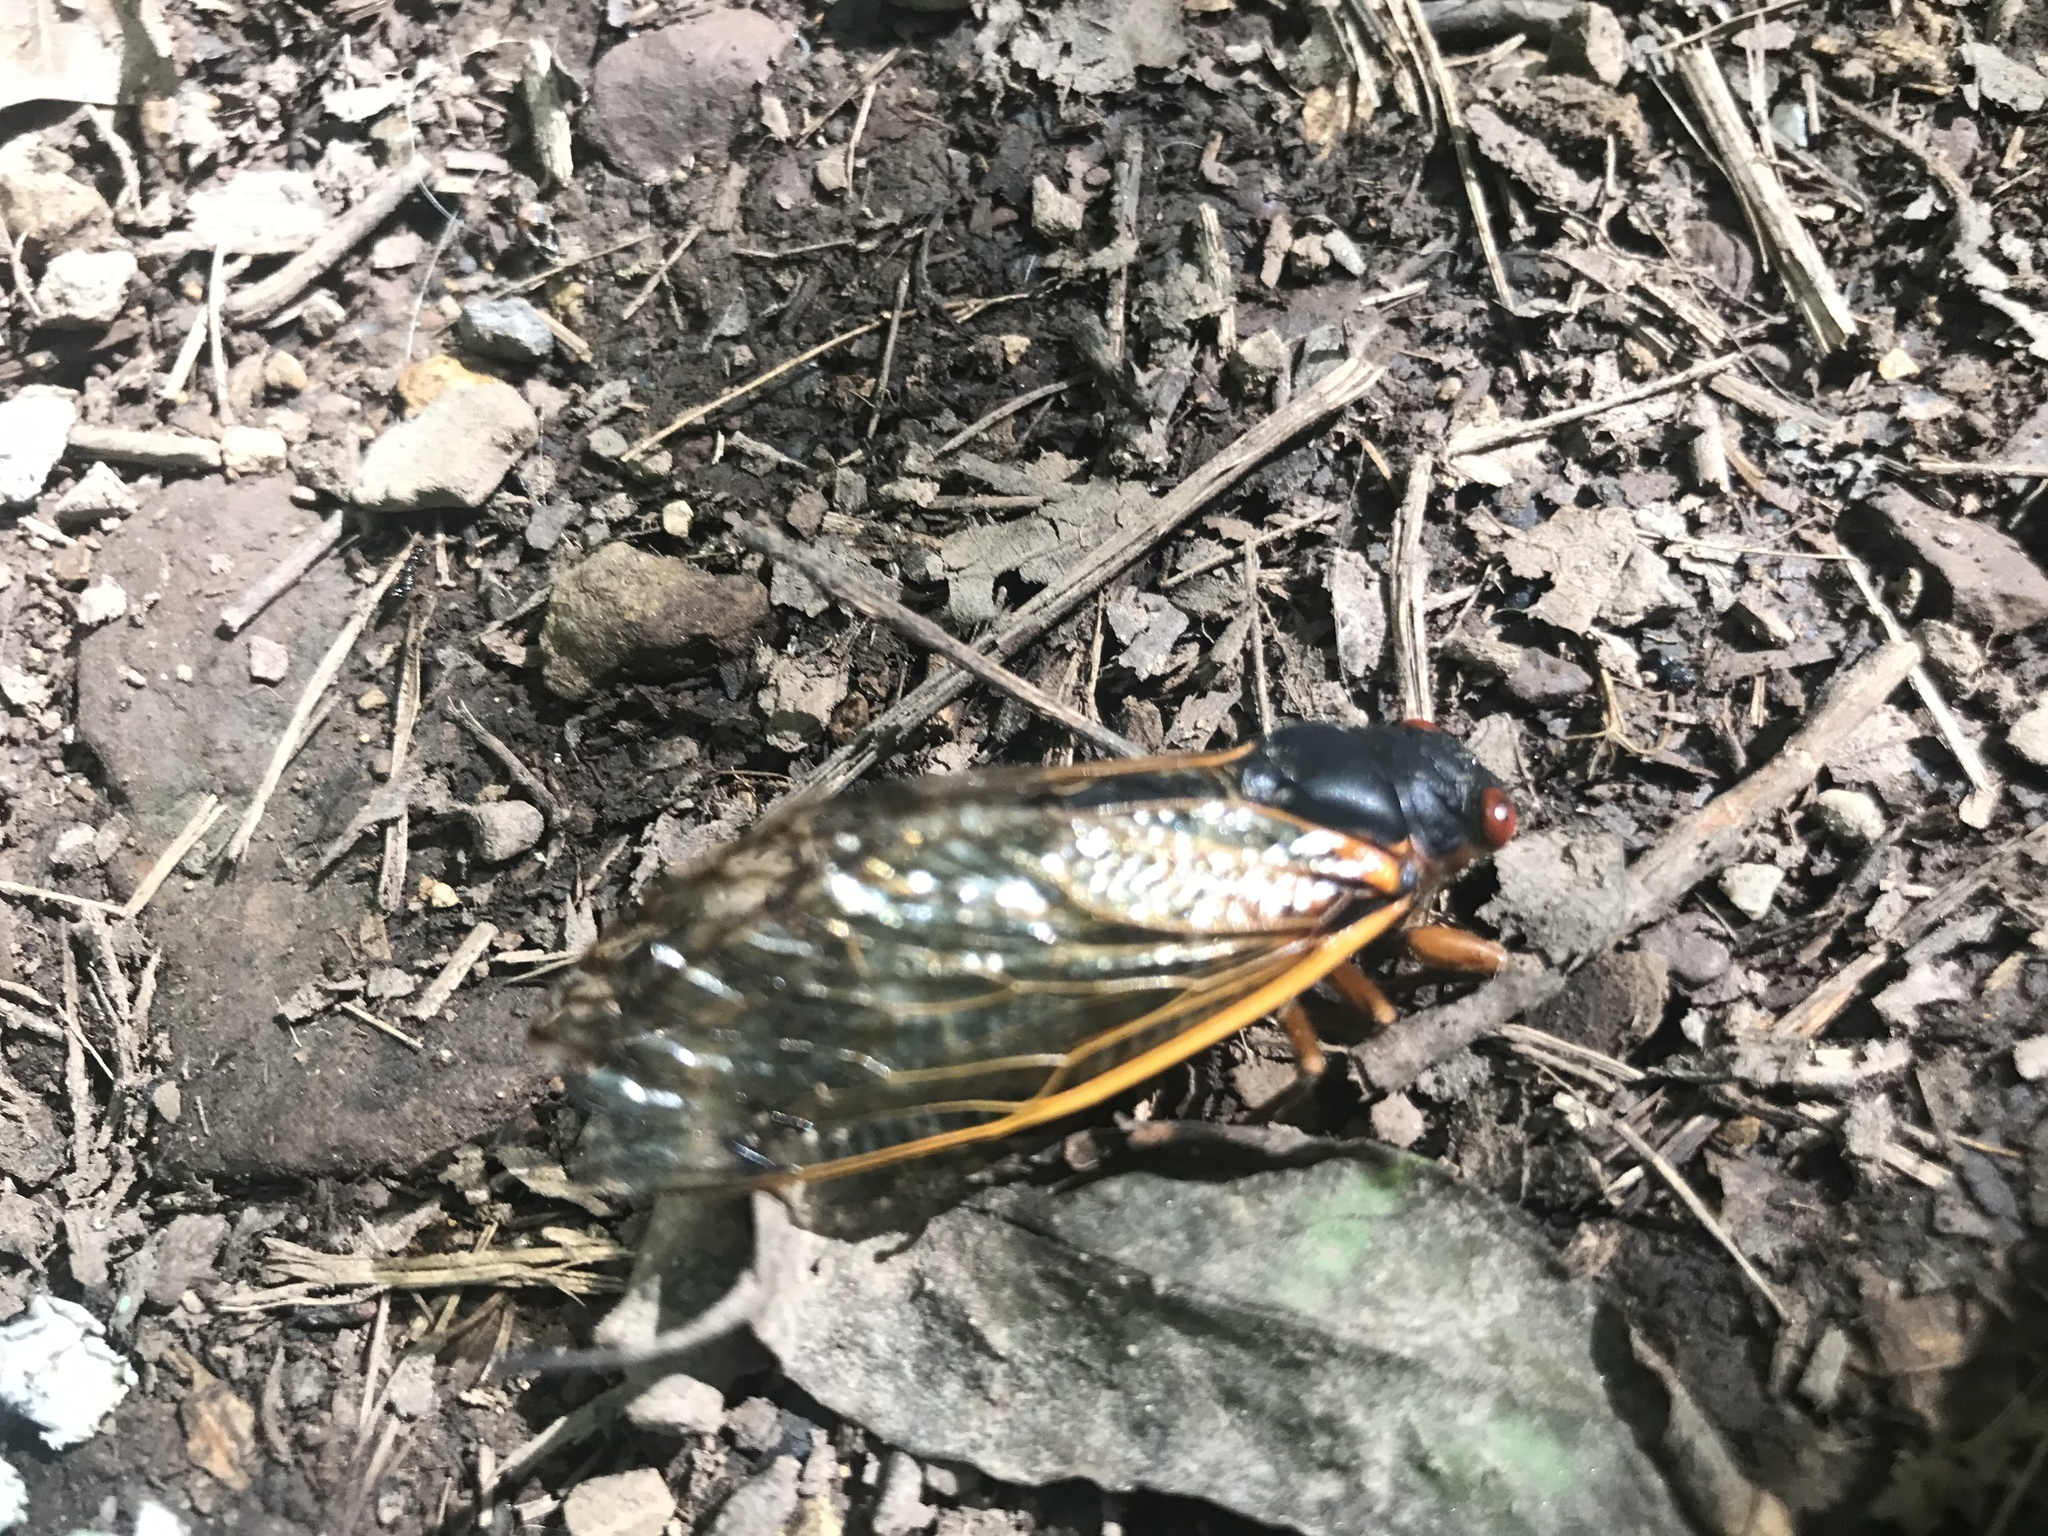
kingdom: Animalia
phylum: Arthropoda
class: Insecta
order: Hemiptera
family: Cicadidae
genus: Magicicada
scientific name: Magicicada septendecim
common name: Periodical cicada
